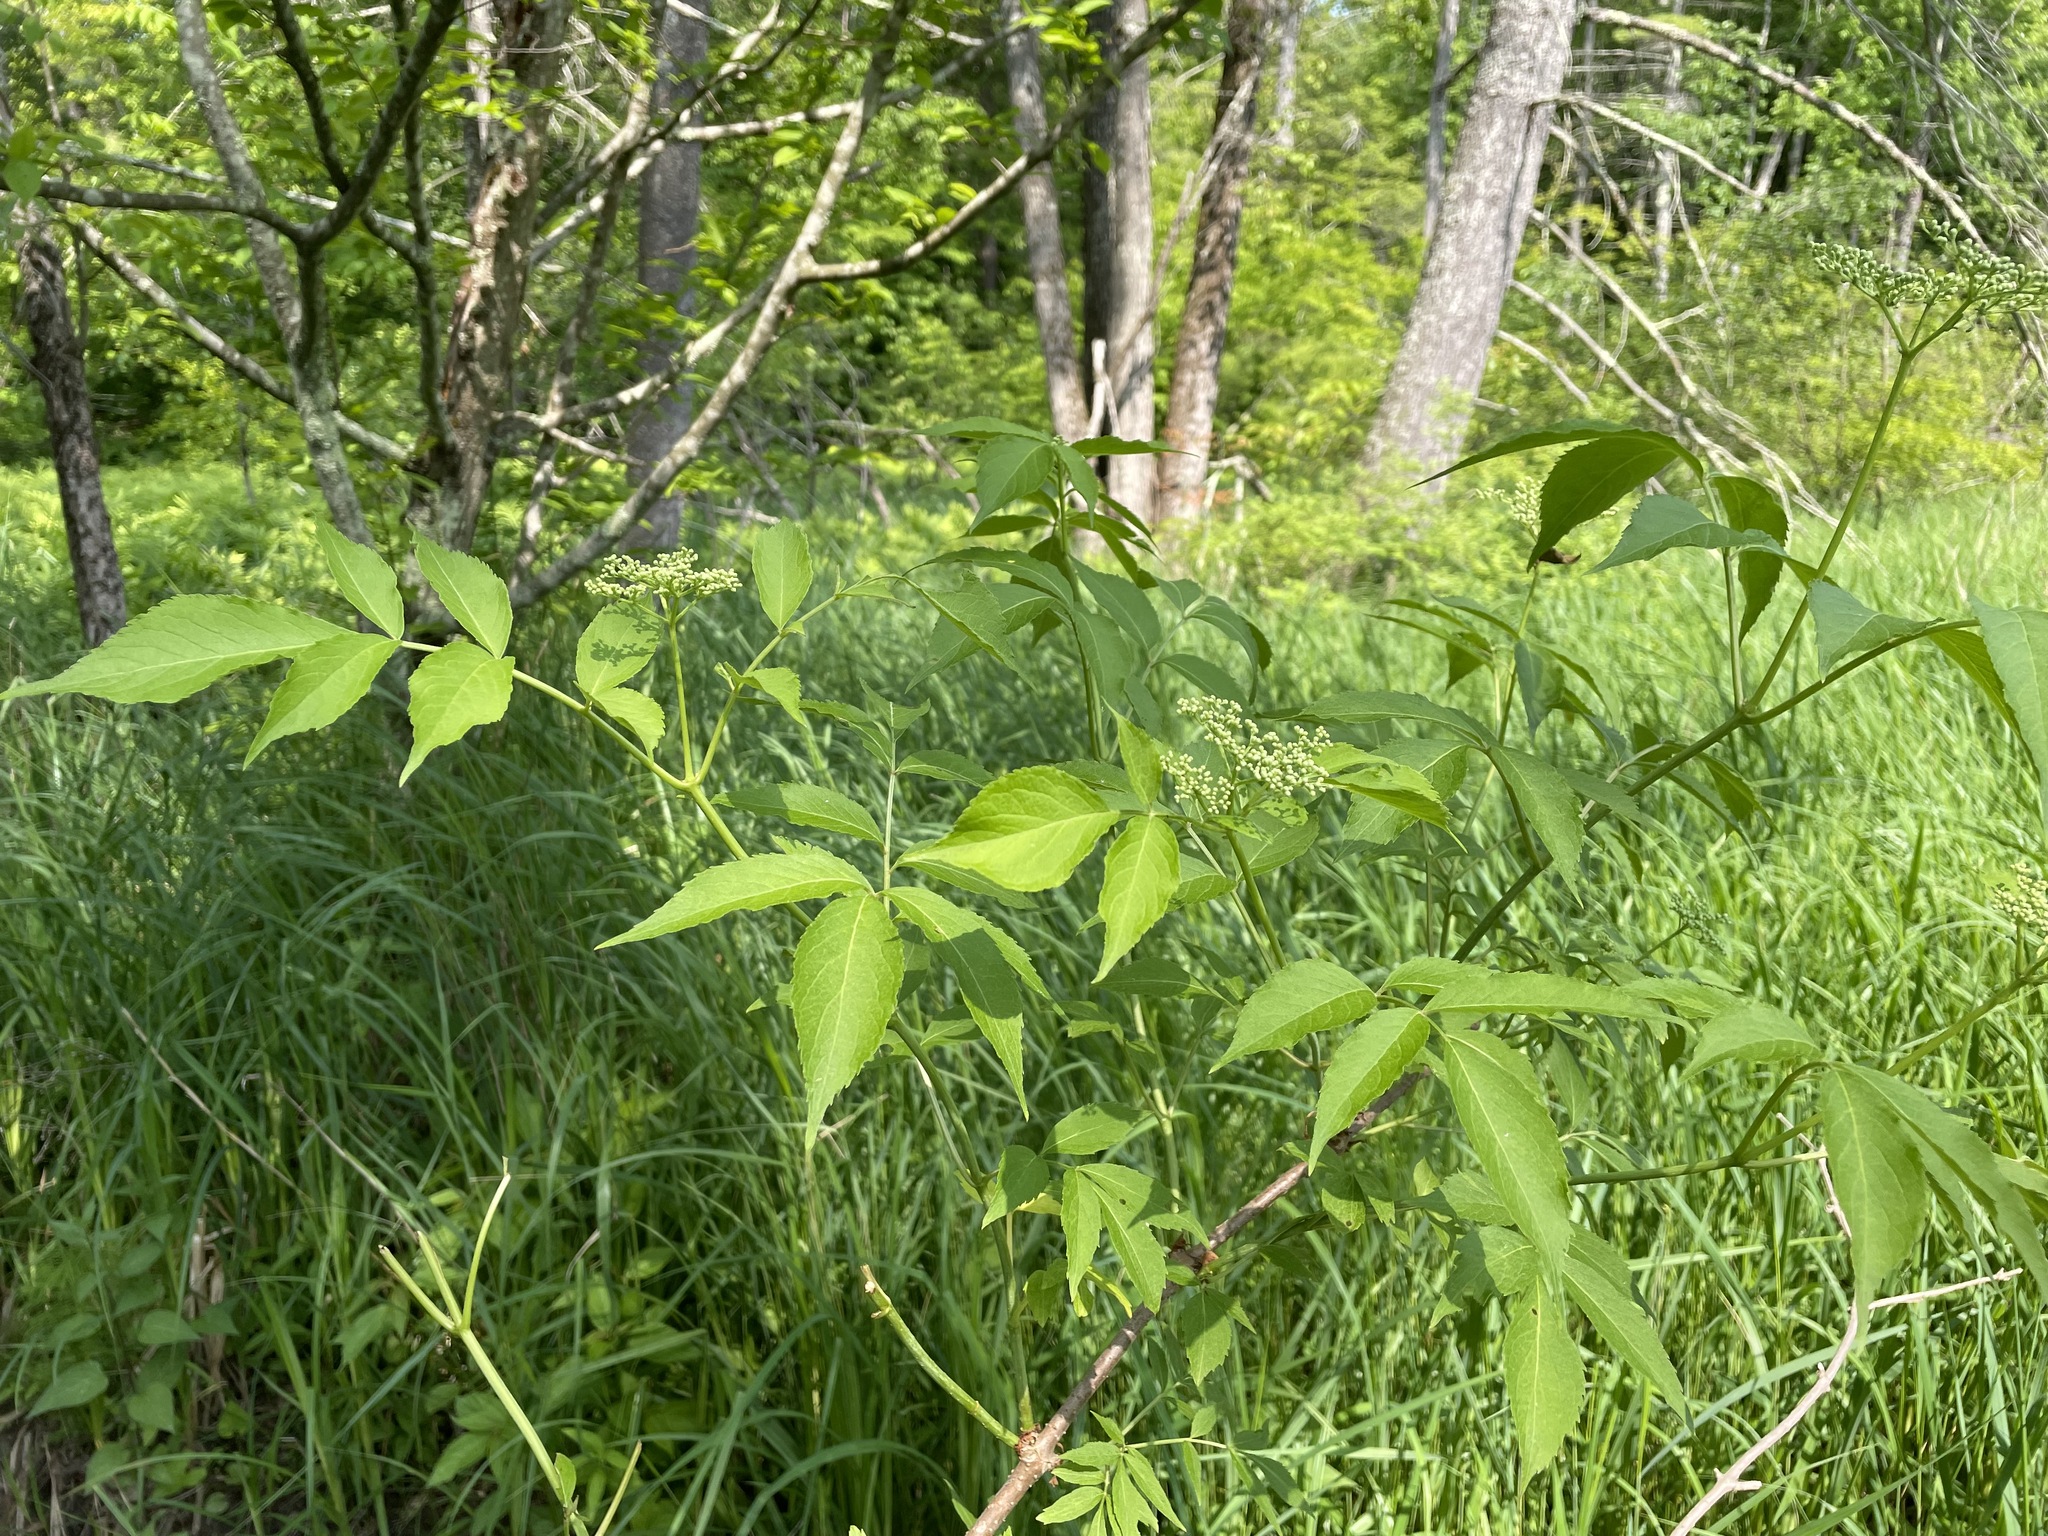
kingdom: Plantae
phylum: Tracheophyta
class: Magnoliopsida
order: Dipsacales
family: Viburnaceae
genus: Sambucus
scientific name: Sambucus canadensis
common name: American elder
